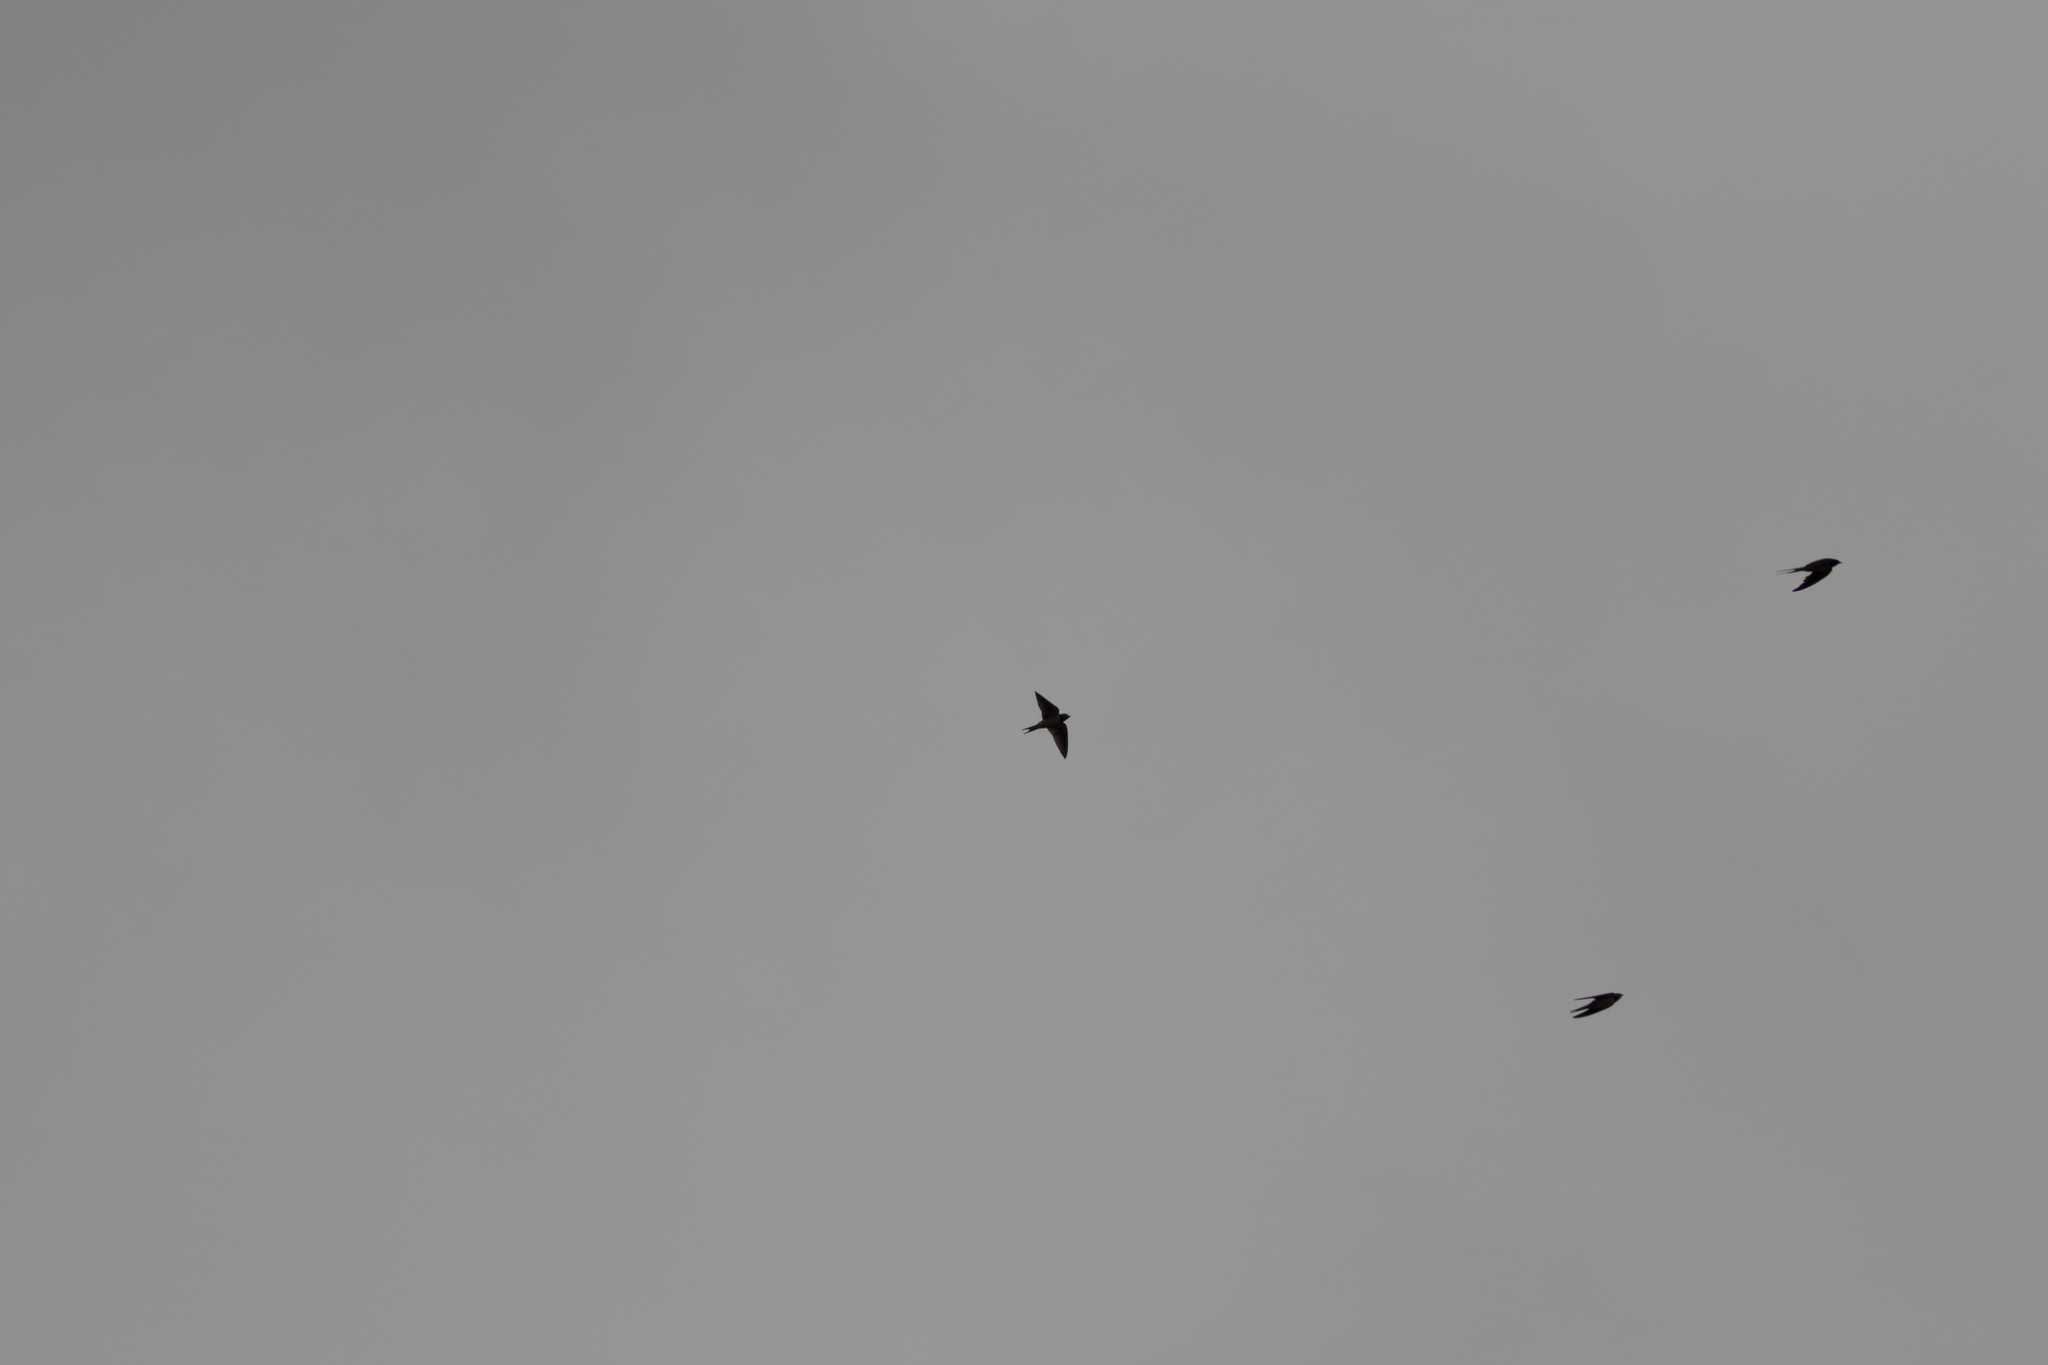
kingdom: Animalia
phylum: Chordata
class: Aves
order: Passeriformes
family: Hirundinidae
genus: Hirundo
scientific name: Hirundo rustica
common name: Barn swallow
